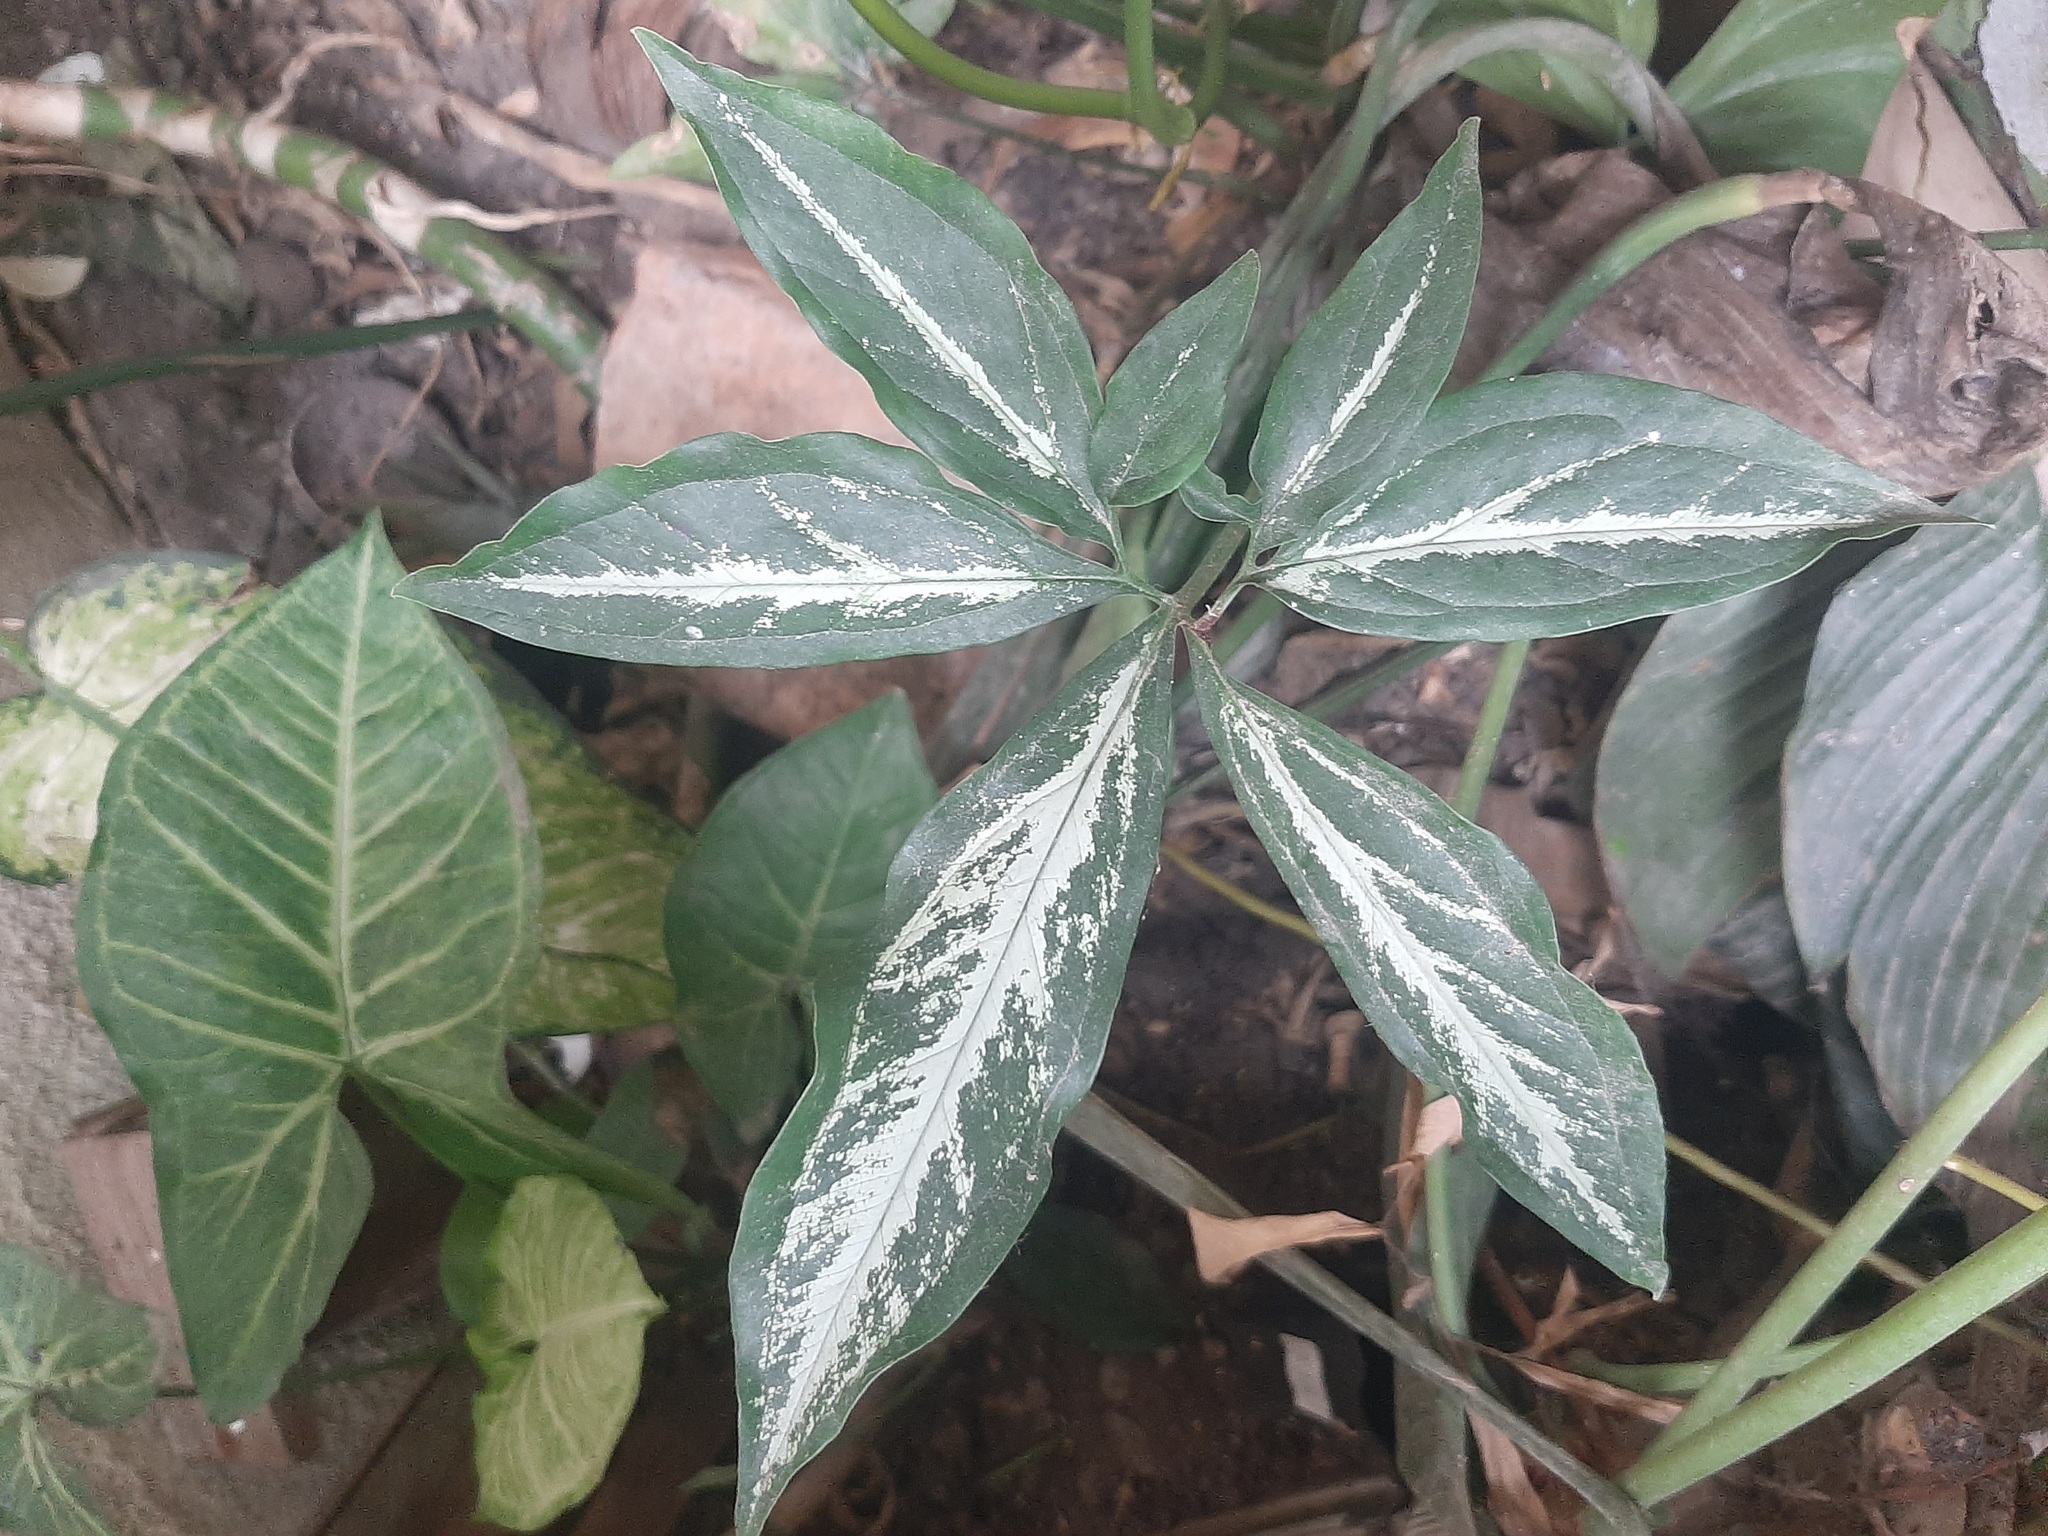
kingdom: Plantae
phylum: Tracheophyta
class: Liliopsida
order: Alismatales
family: Araceae
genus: Syngonium
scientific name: Syngonium angustatum
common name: Fivefingers
